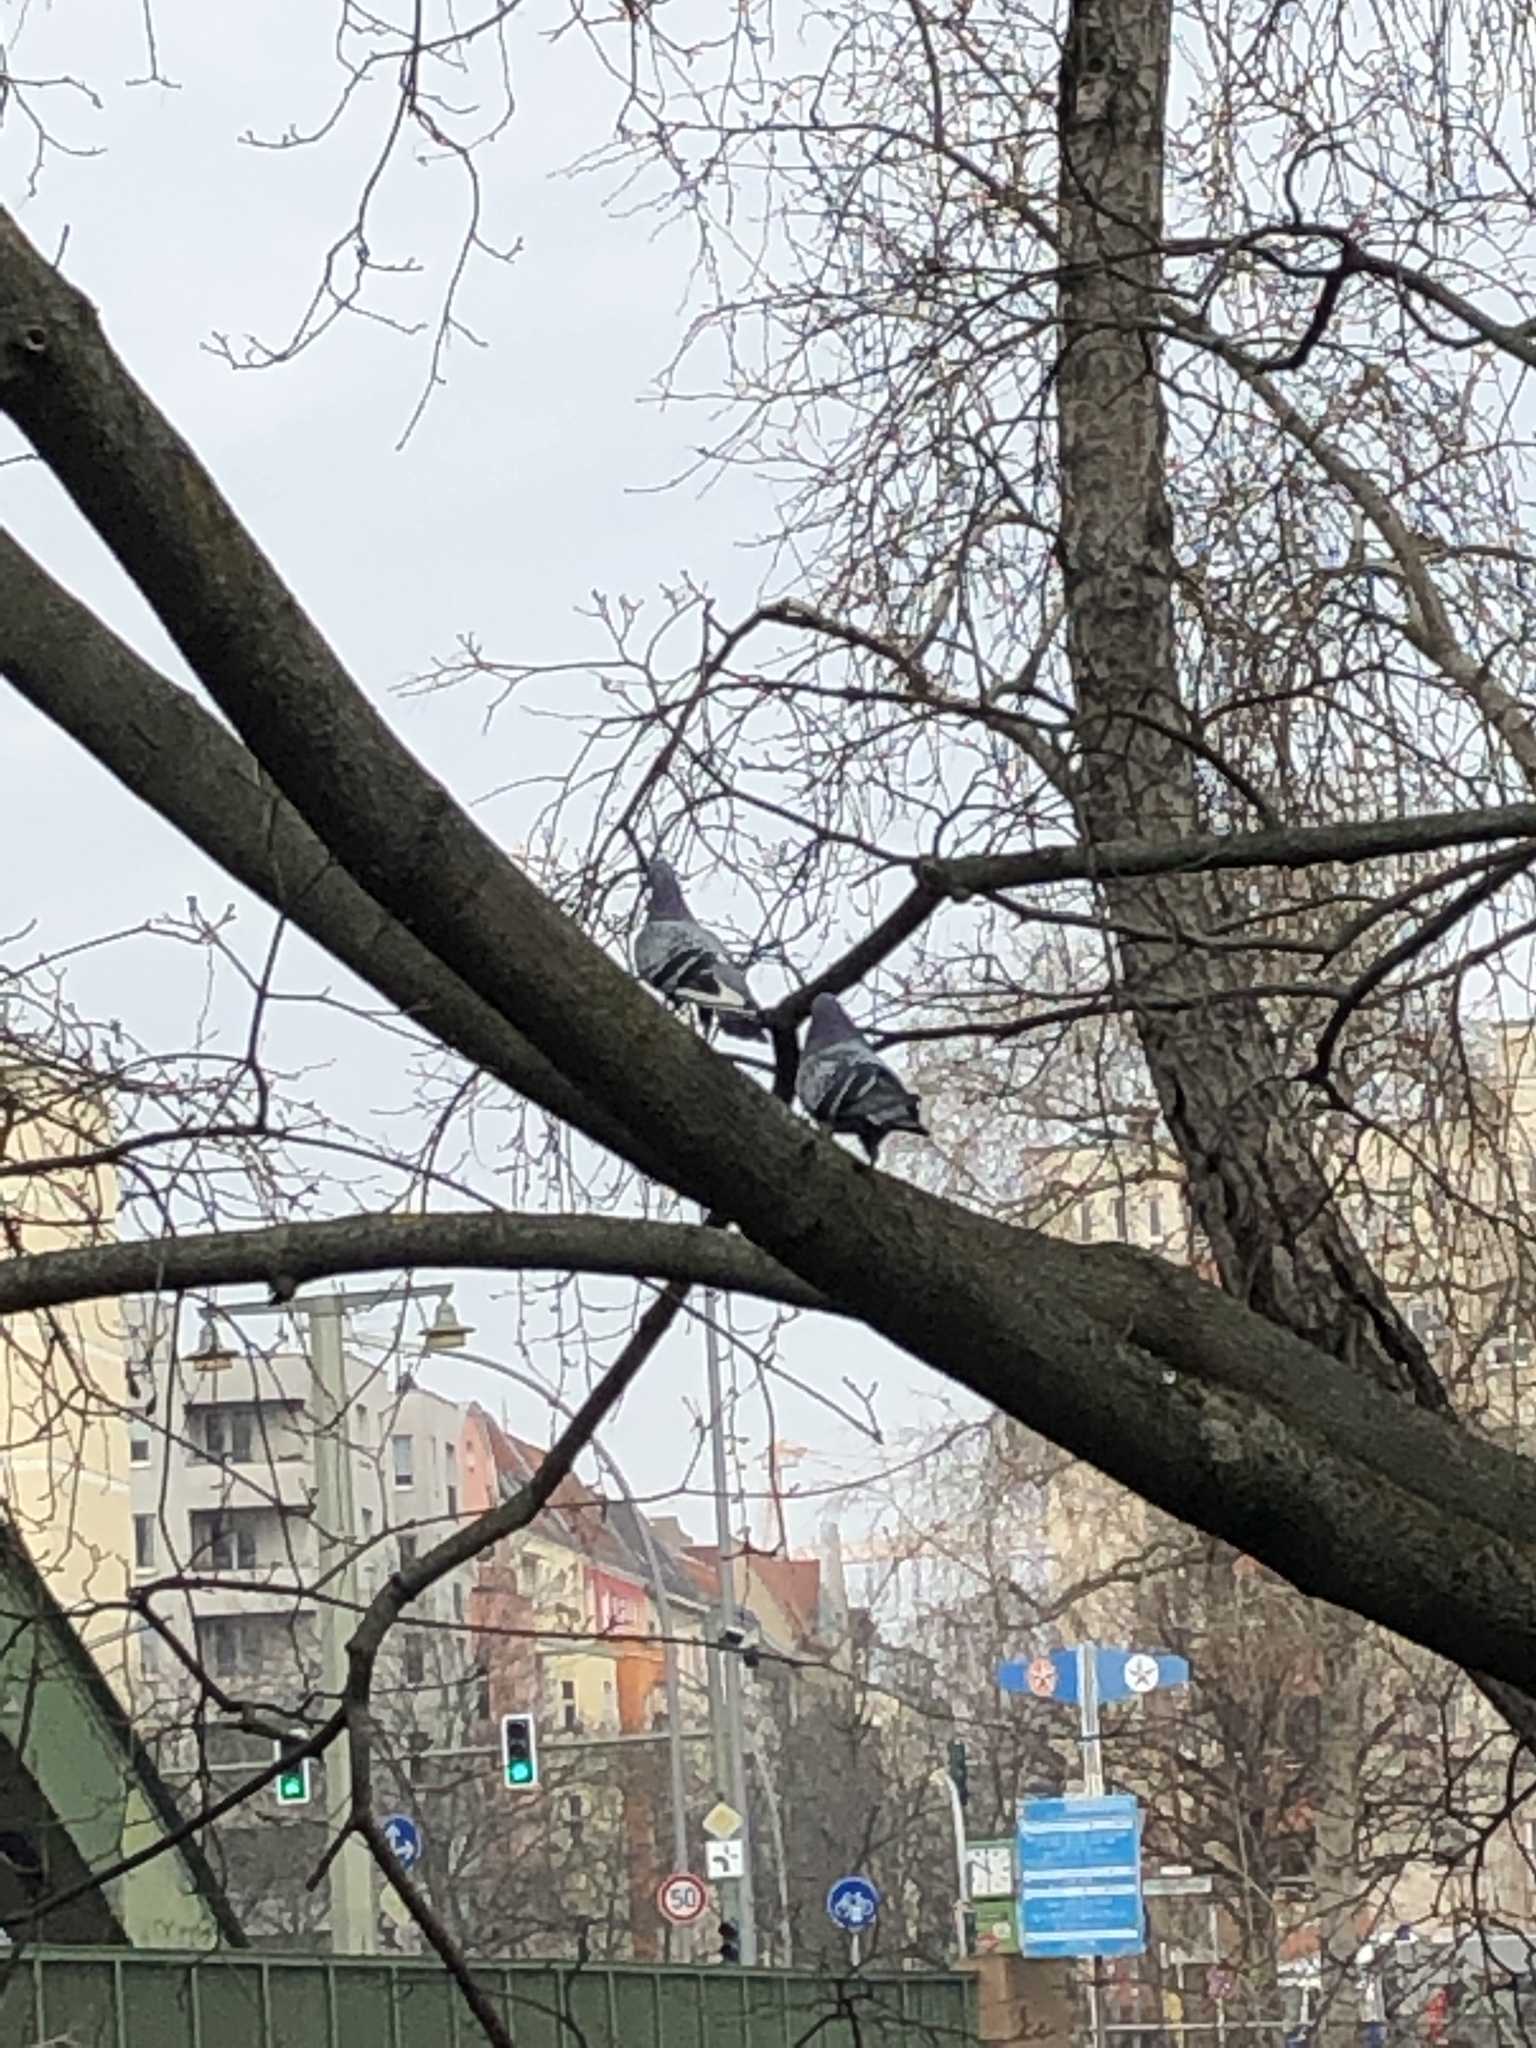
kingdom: Animalia
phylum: Chordata
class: Aves
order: Columbiformes
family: Columbidae
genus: Columba
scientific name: Columba livia
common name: Rock pigeon
